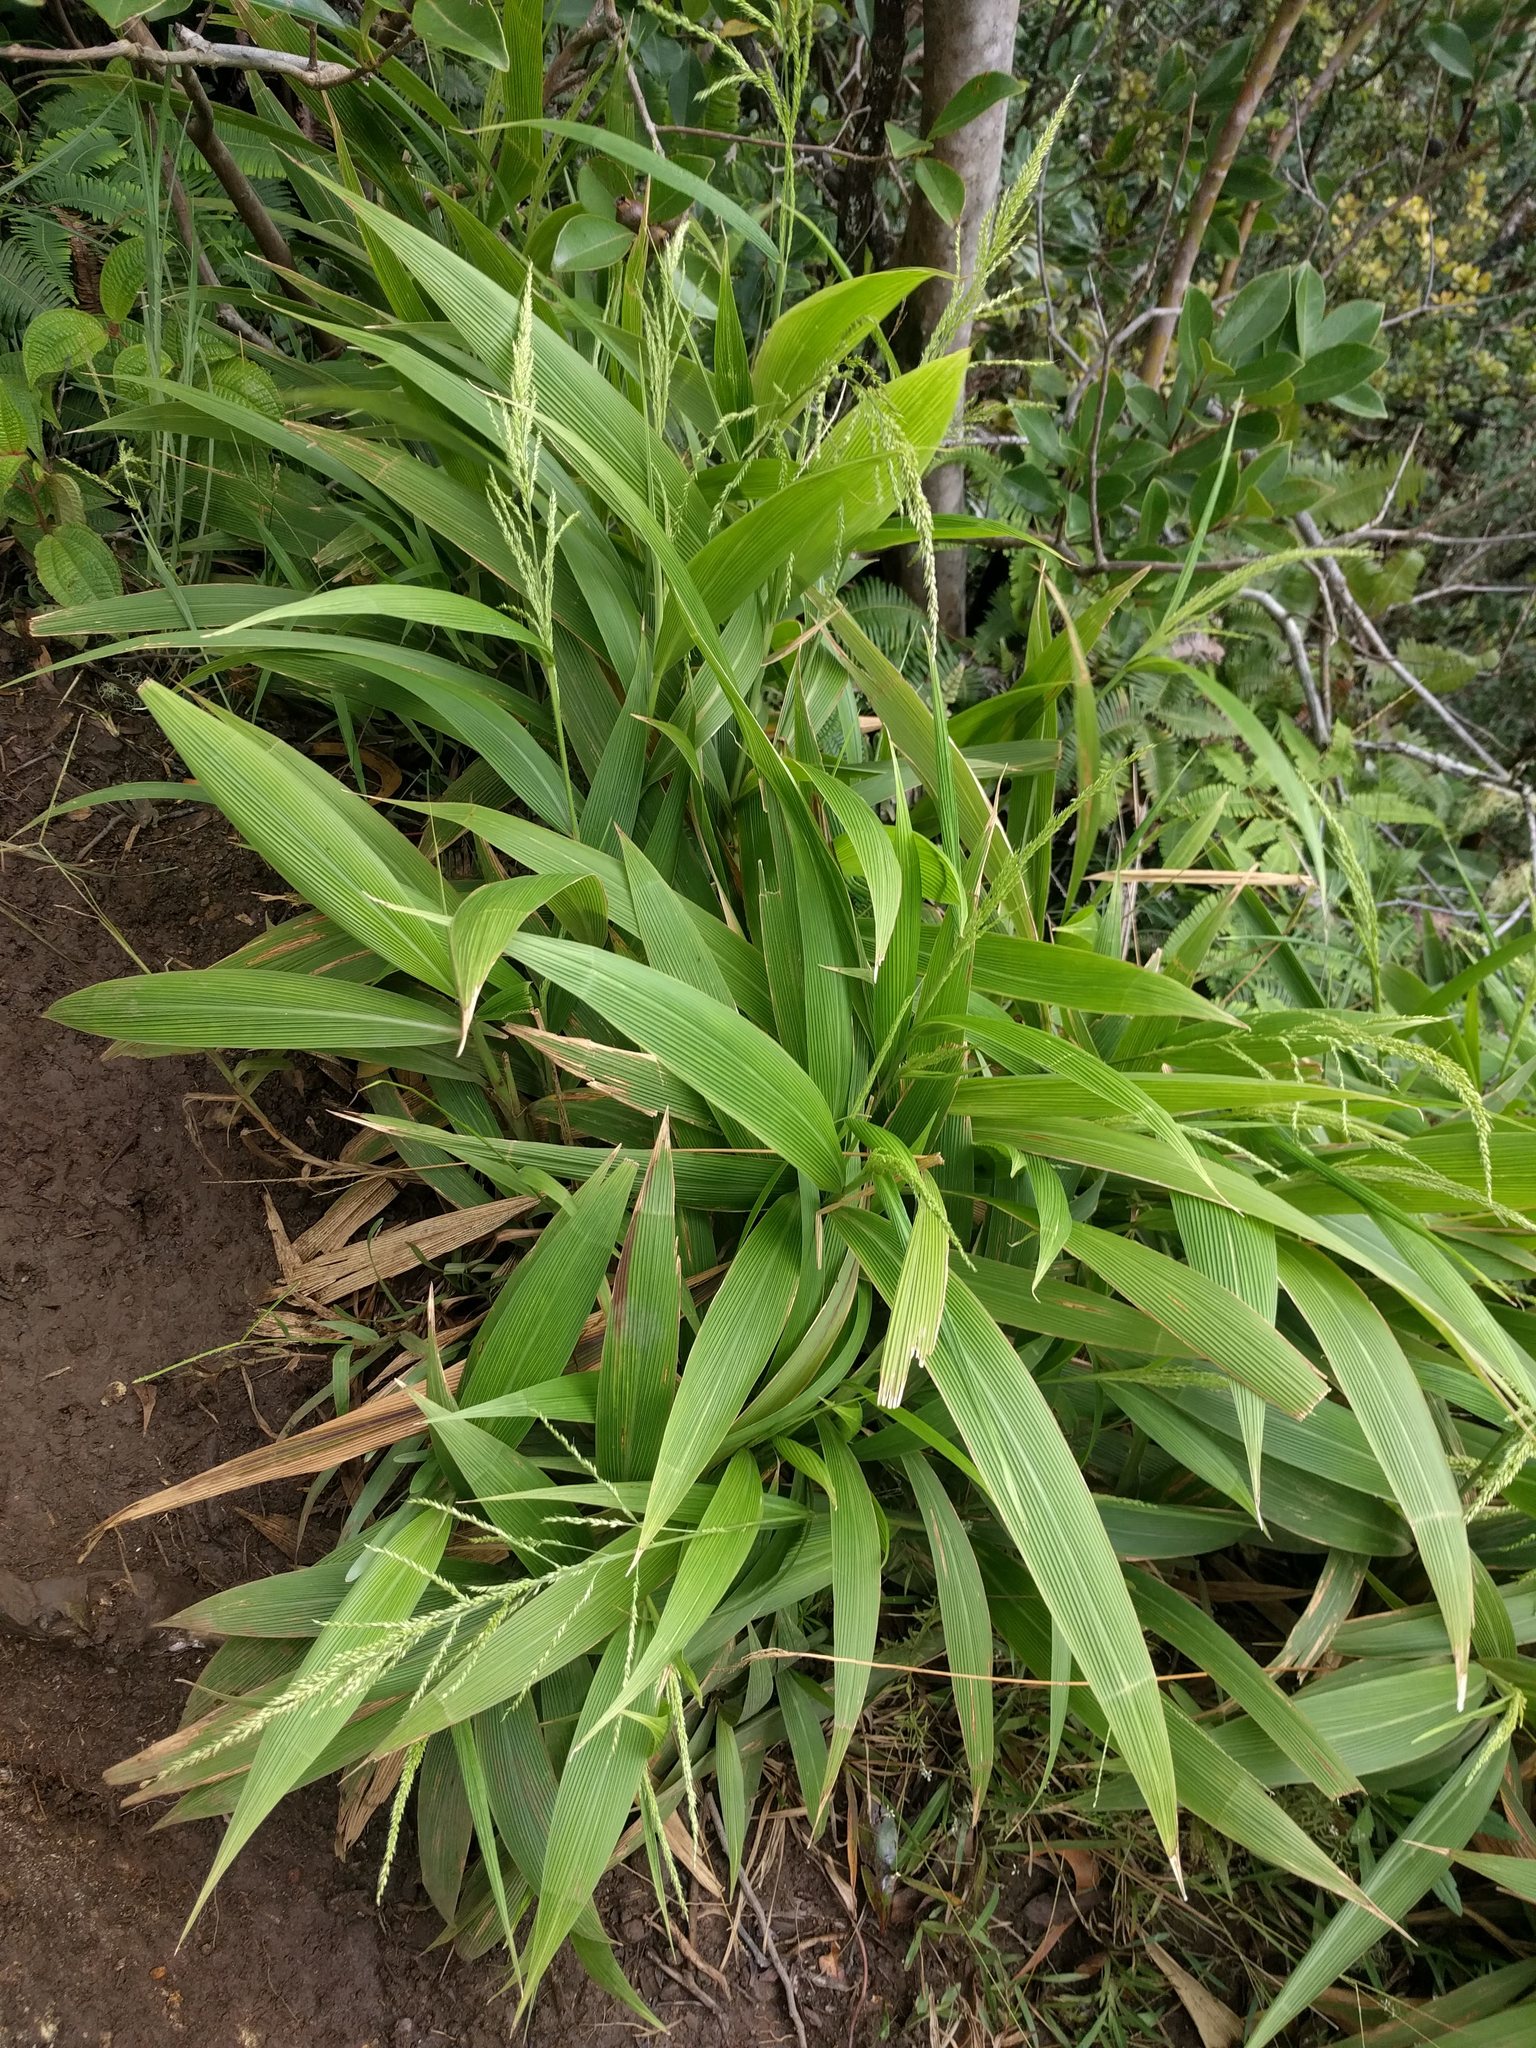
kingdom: Plantae
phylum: Tracheophyta
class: Liliopsida
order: Poales
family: Poaceae
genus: Setaria
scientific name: Setaria palmifolia
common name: Broadleaved bristlegrass
